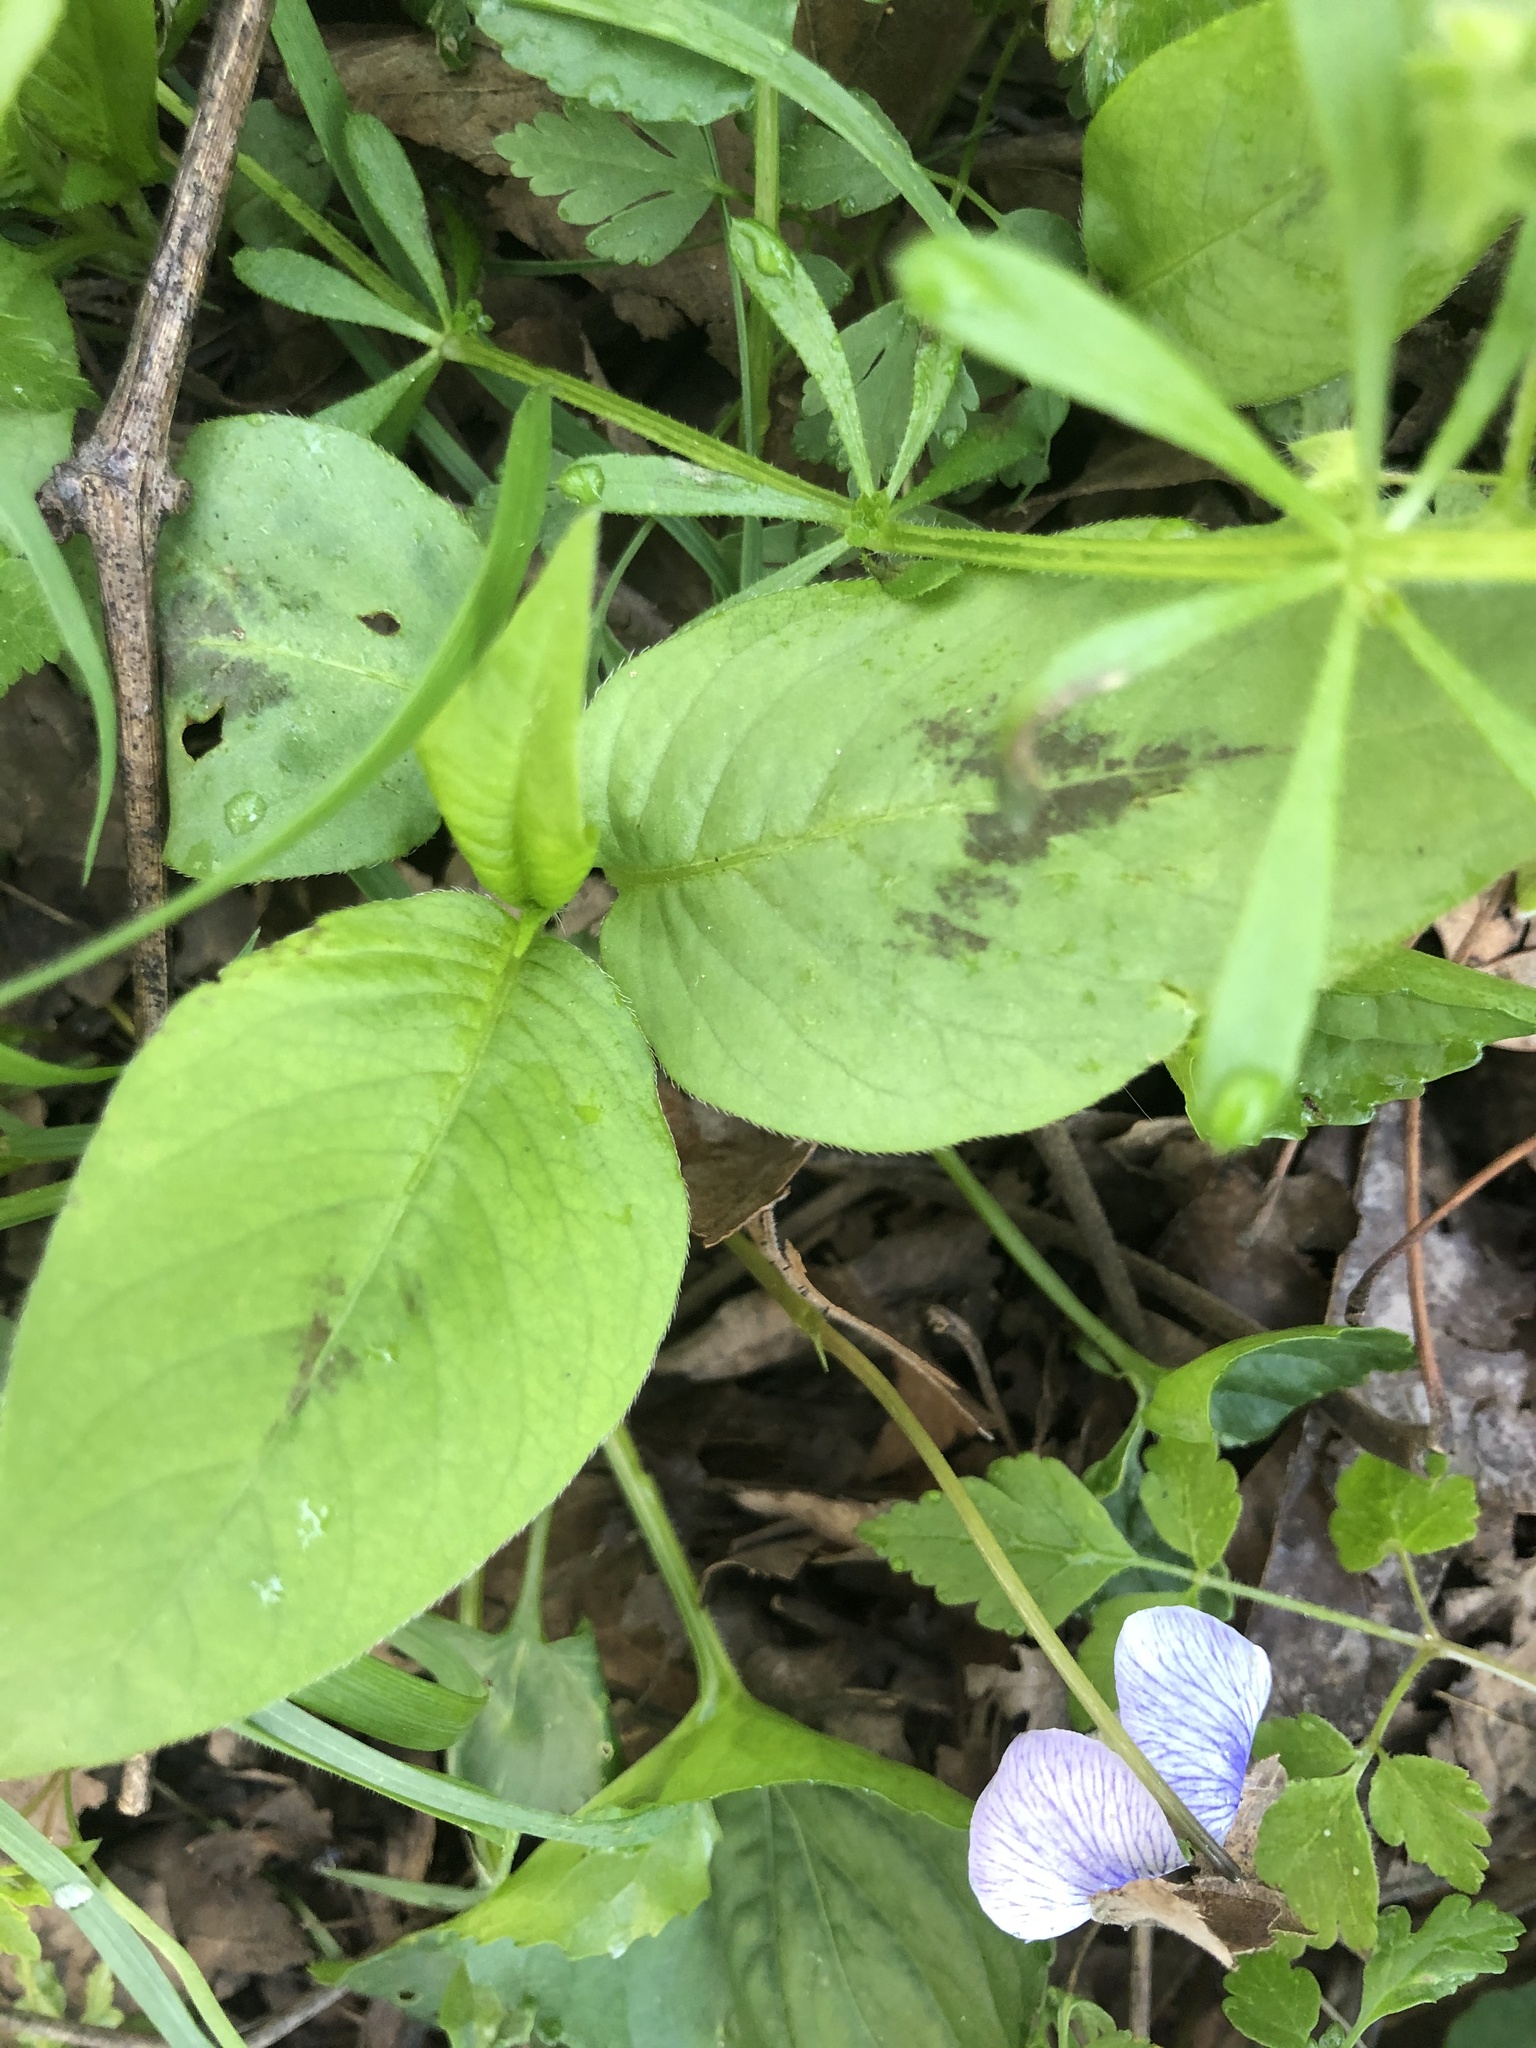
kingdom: Plantae
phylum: Tracheophyta
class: Magnoliopsida
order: Caryophyllales
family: Polygonaceae
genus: Persicaria
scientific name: Persicaria maculosa
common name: Redshank
